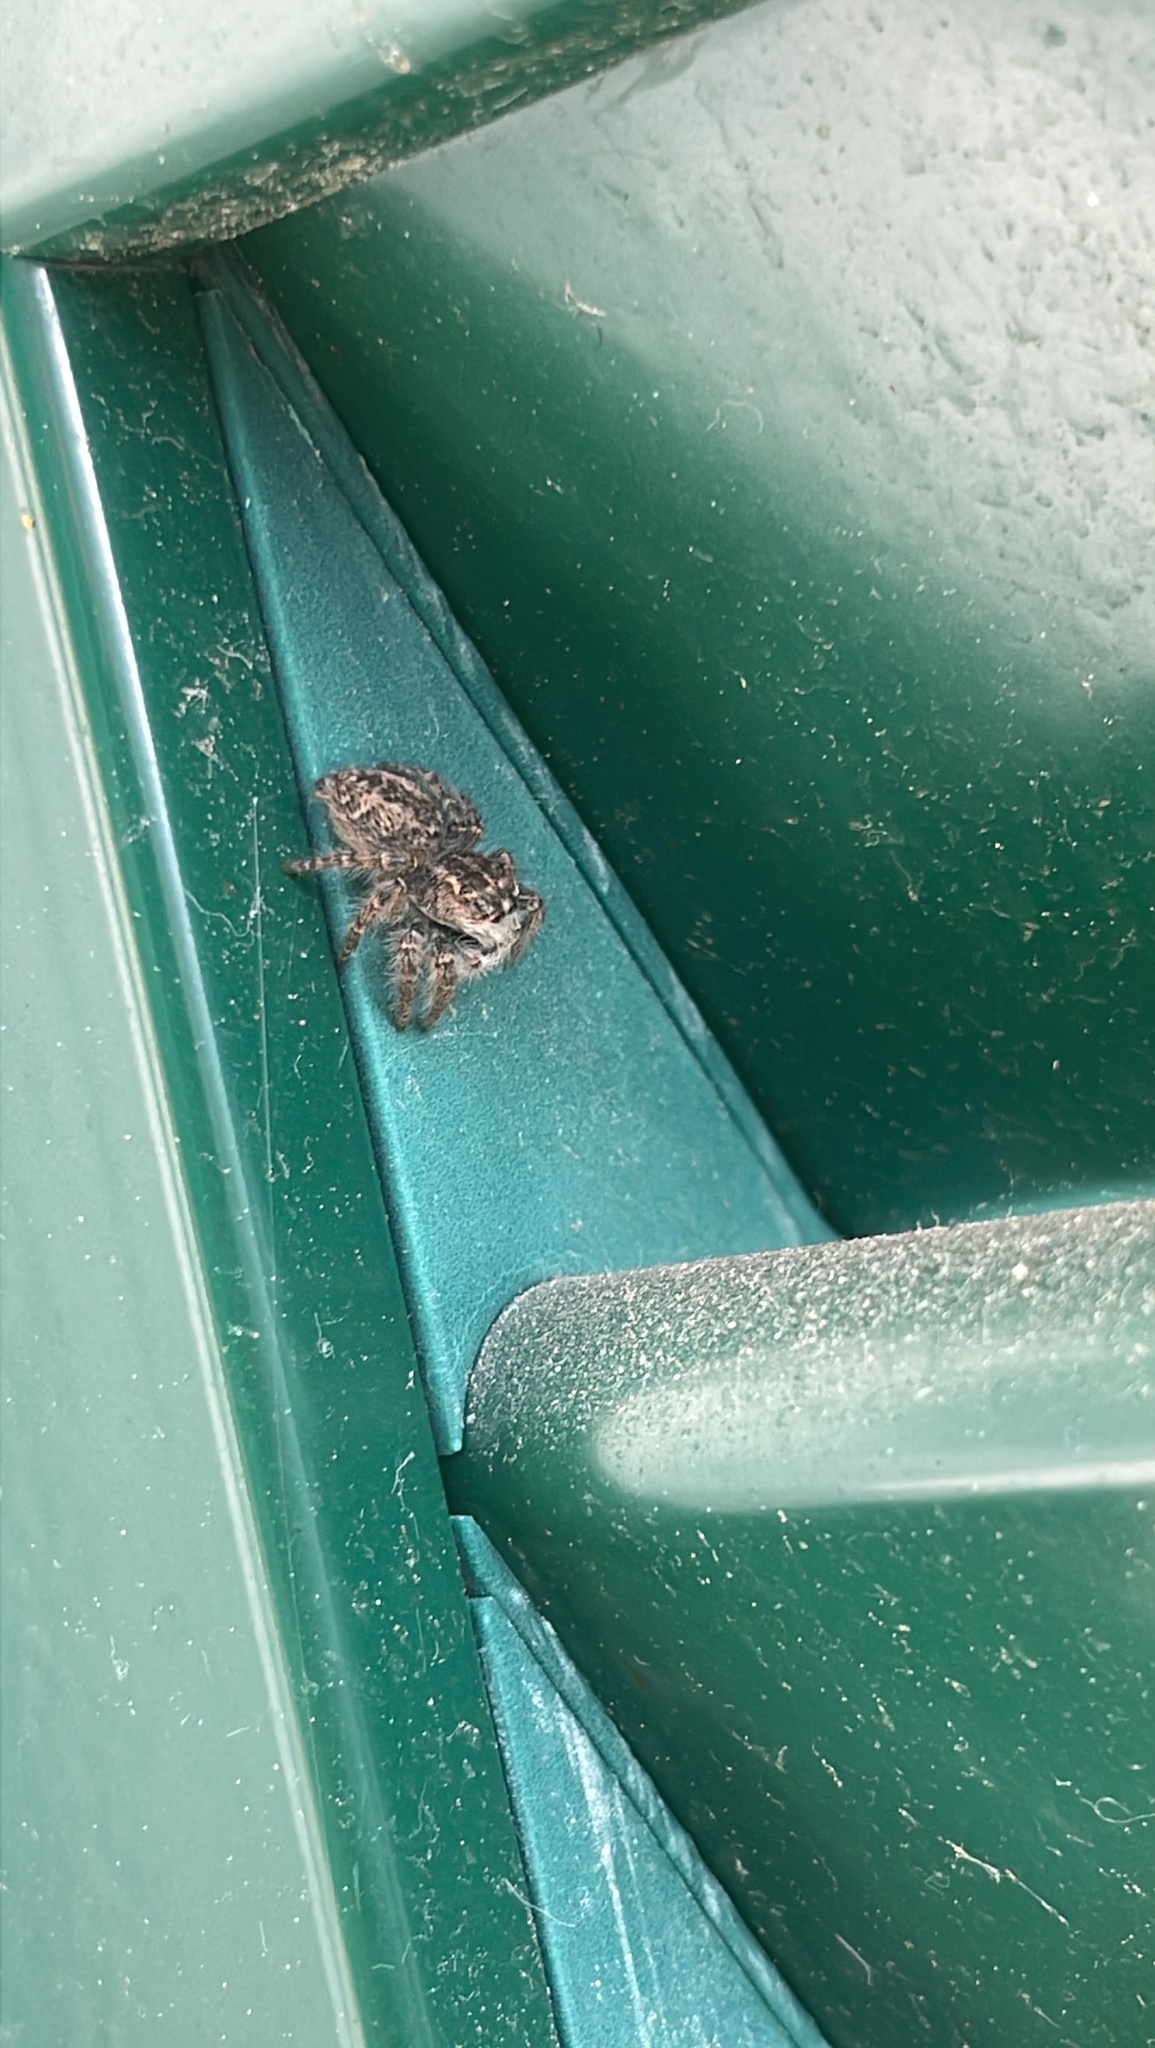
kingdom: Animalia
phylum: Arthropoda
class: Arachnida
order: Araneae
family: Salticidae
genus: Philaeus
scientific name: Philaeus chrysops
